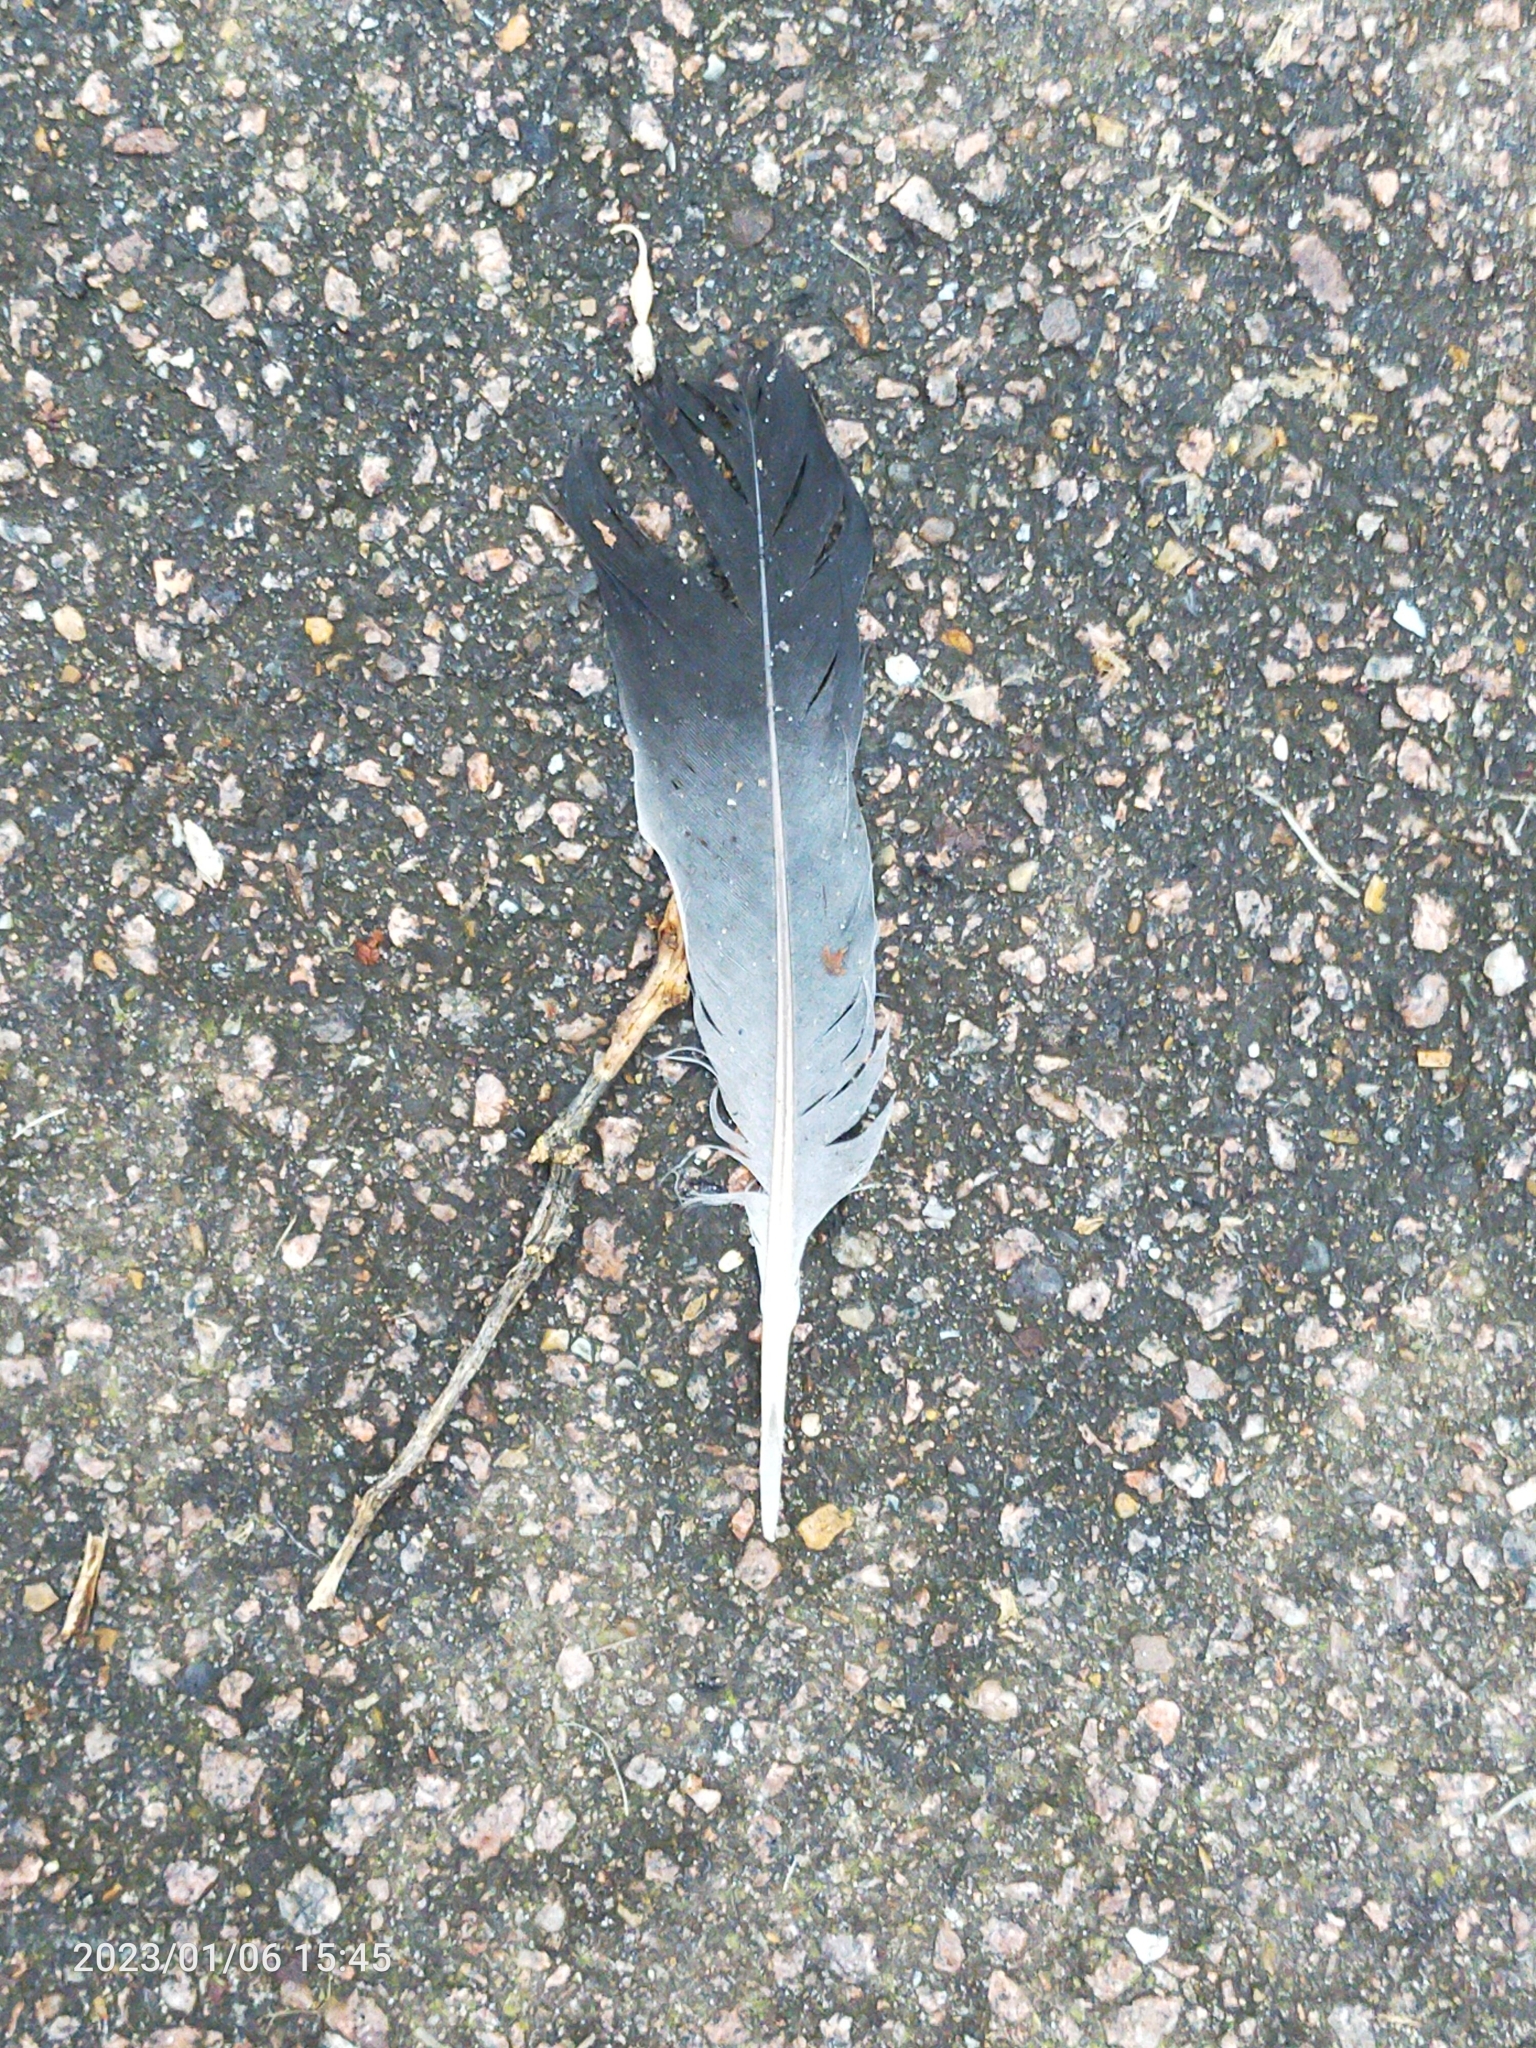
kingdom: Animalia
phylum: Chordata
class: Aves
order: Columbiformes
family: Columbidae
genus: Columba
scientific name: Columba palumbus
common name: Common wood pigeon
